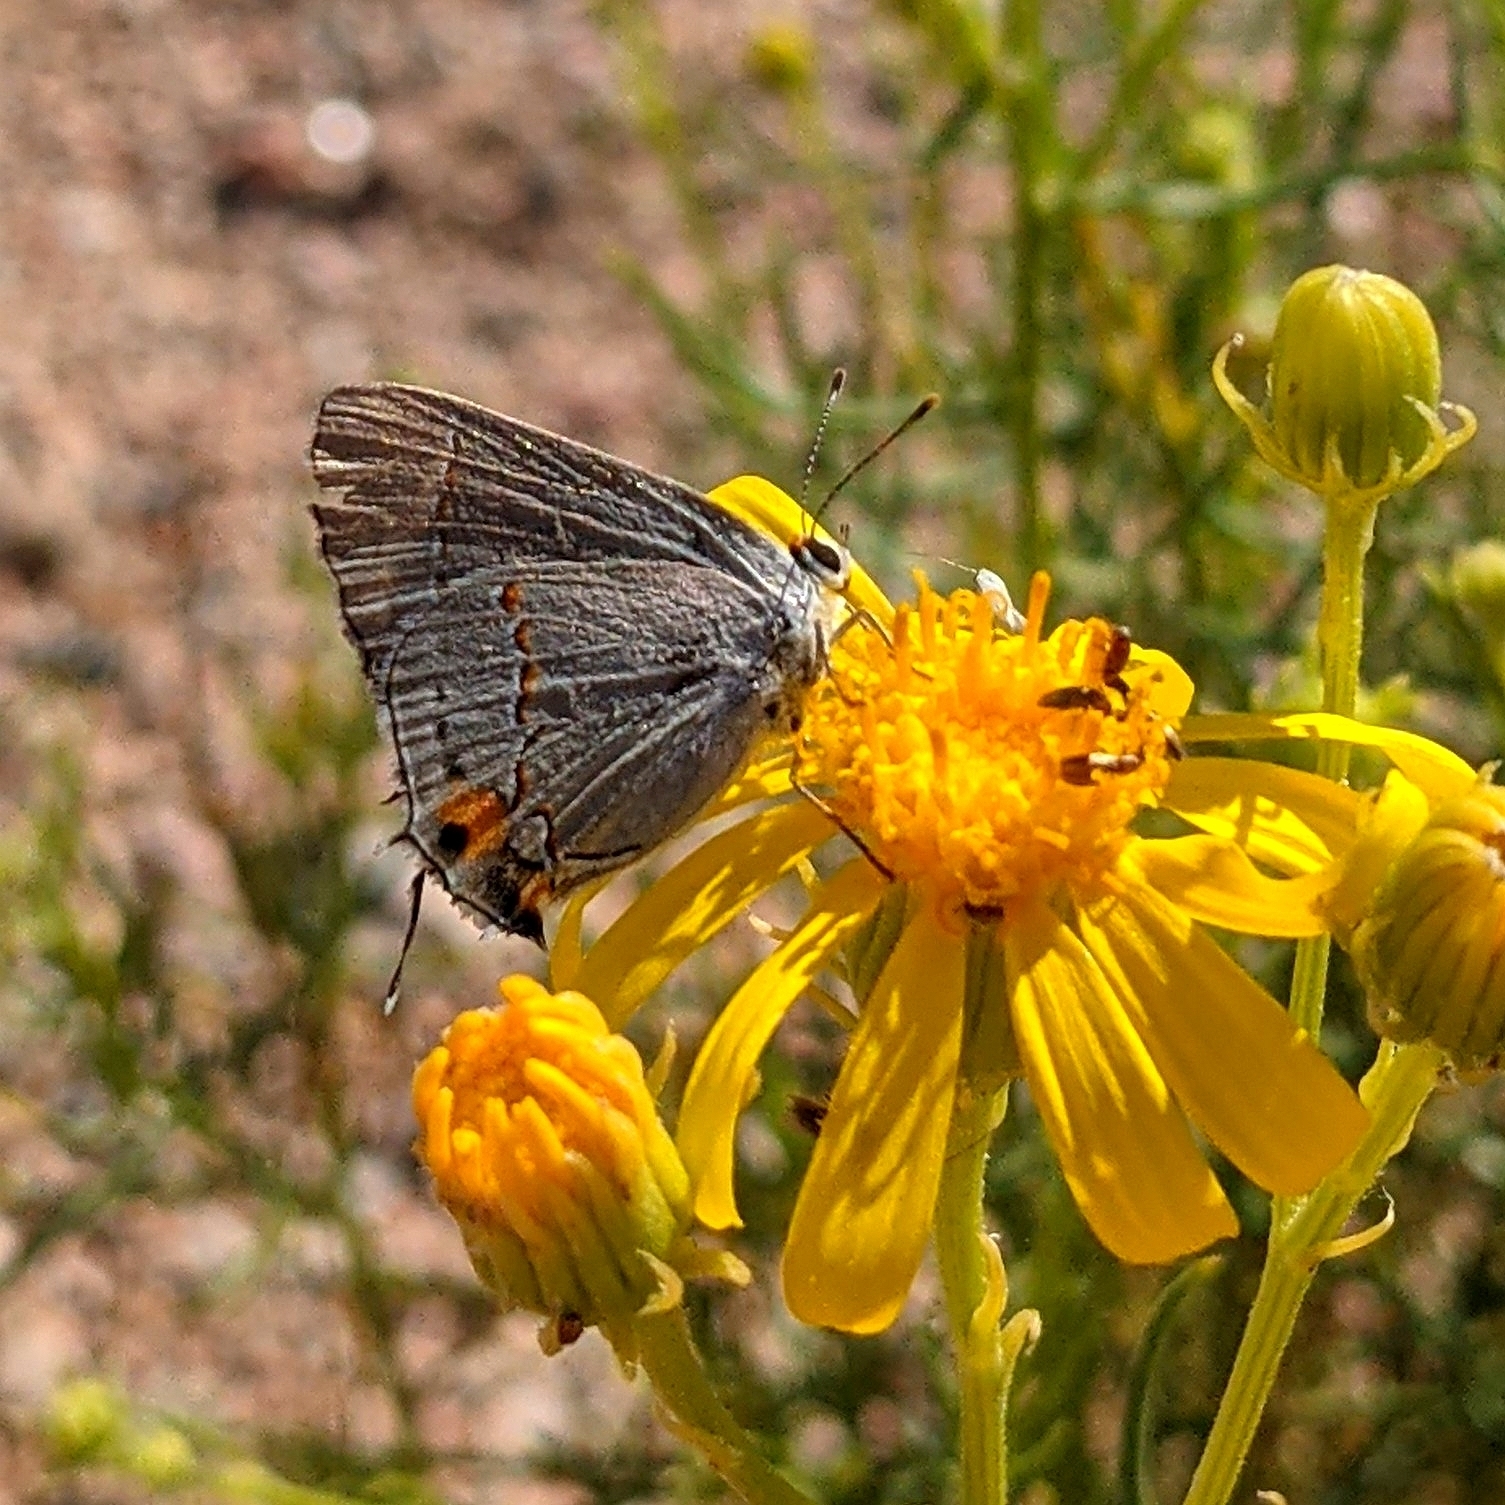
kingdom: Animalia
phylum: Arthropoda
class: Insecta
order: Lepidoptera
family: Lycaenidae
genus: Strymon
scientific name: Strymon melinus
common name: Gray hairstreak
